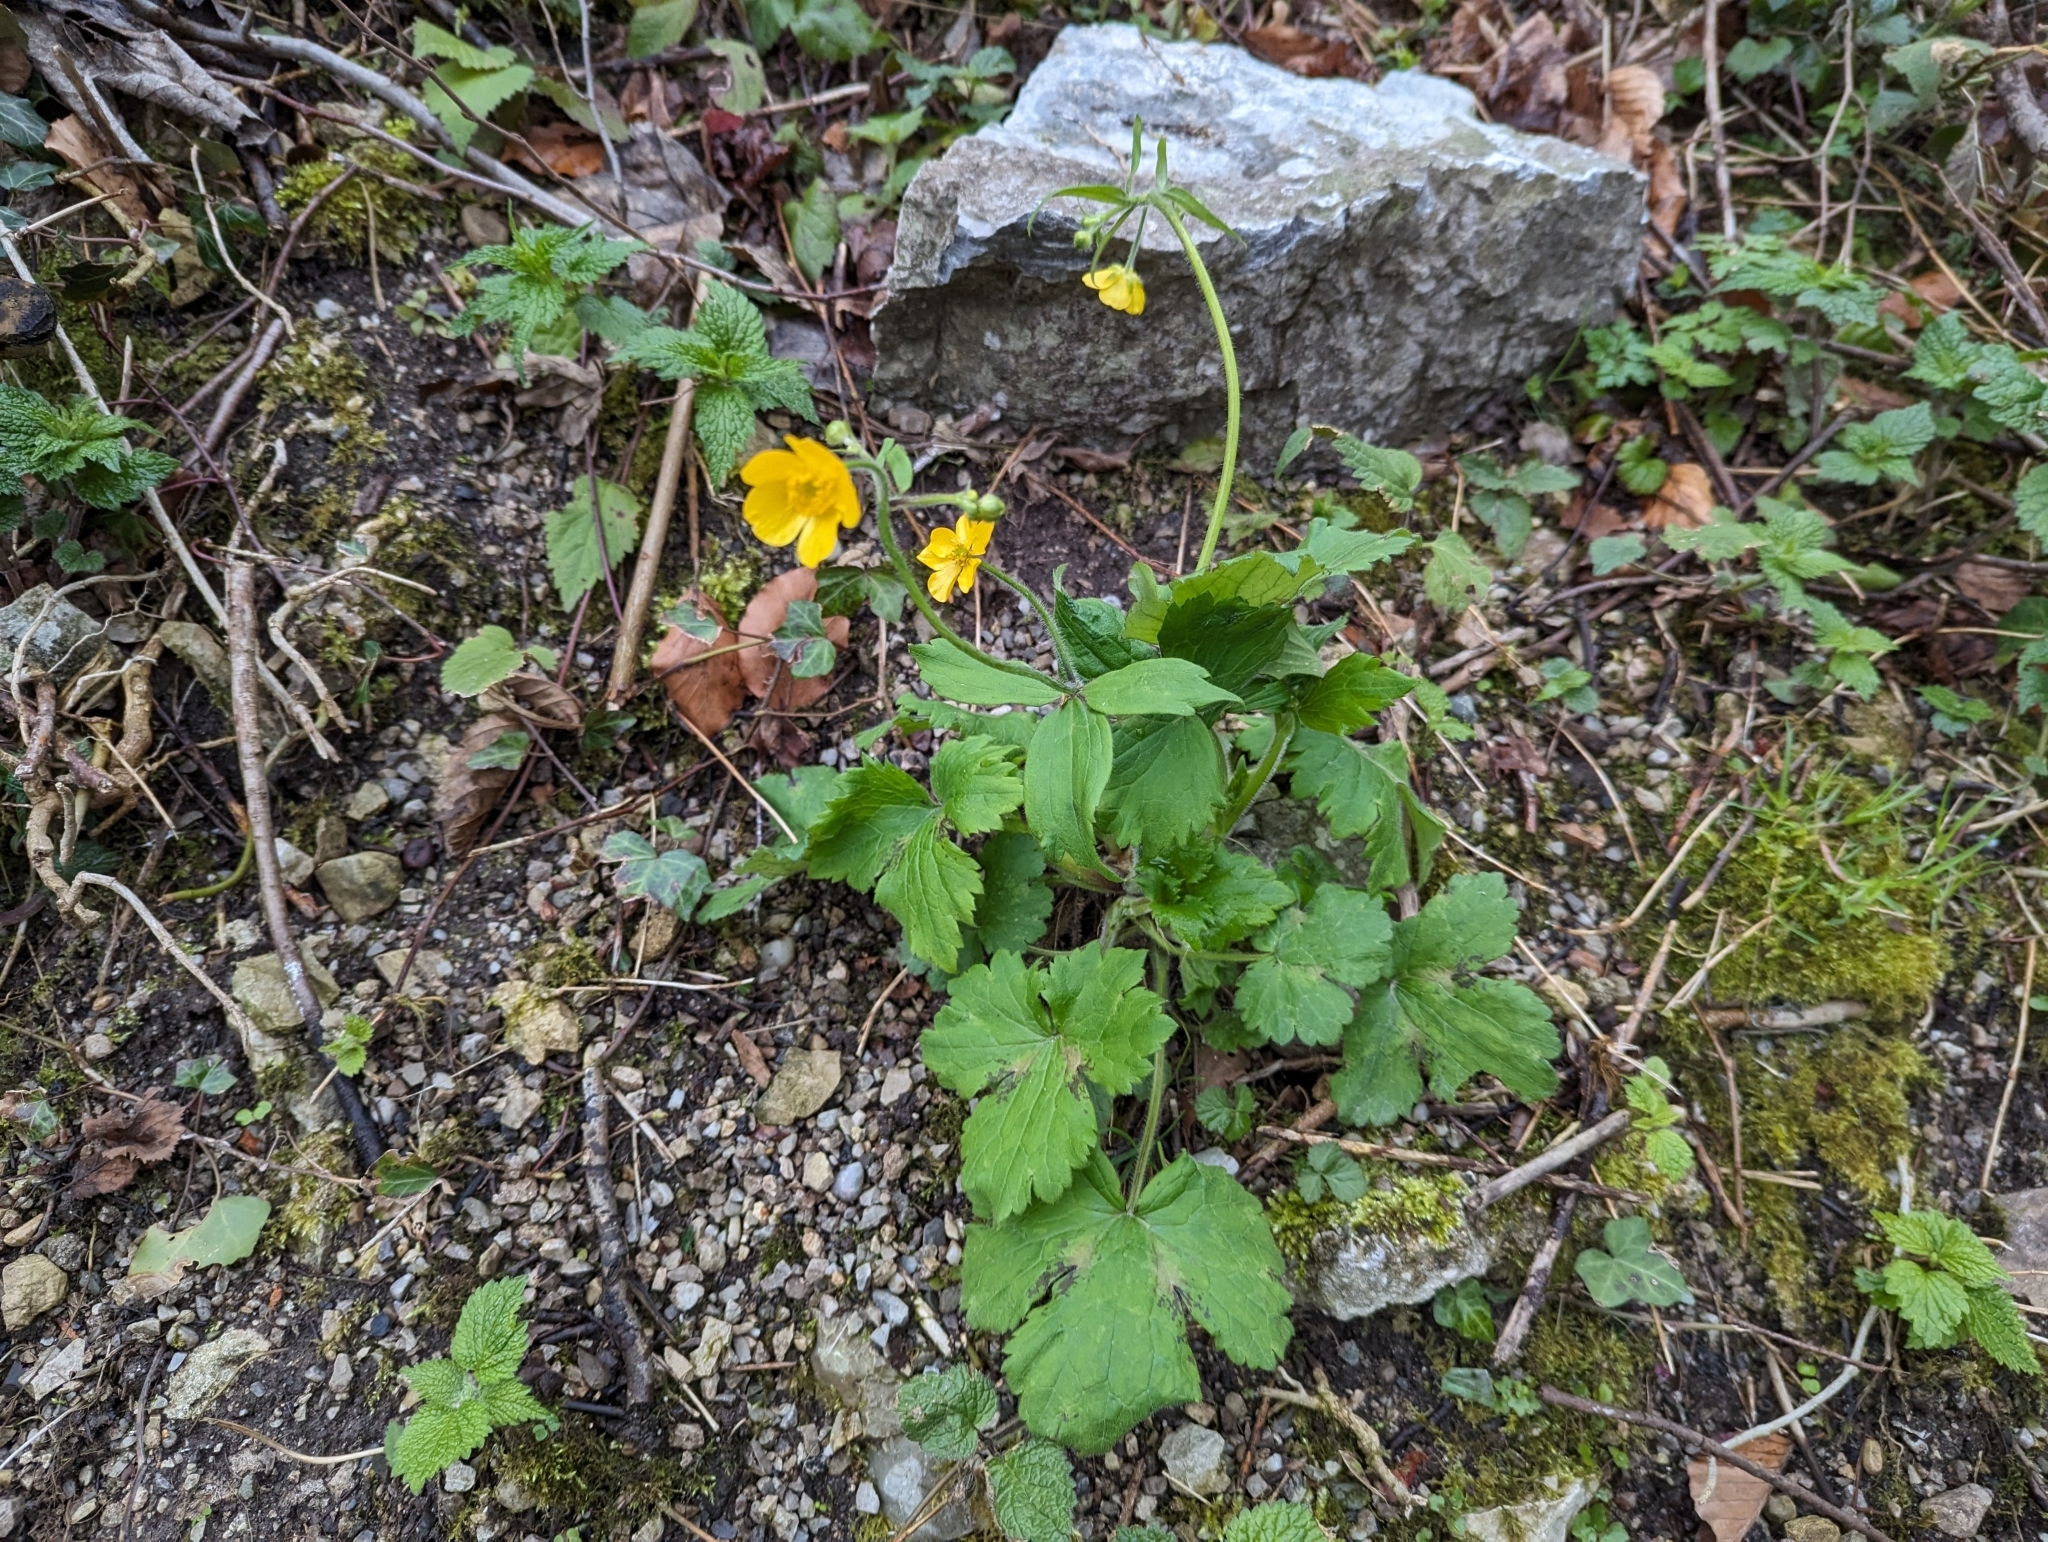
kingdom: Plantae
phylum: Tracheophyta
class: Magnoliopsida
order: Ranunculales
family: Ranunculaceae
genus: Ranunculus
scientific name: Ranunculus lanuginosus
